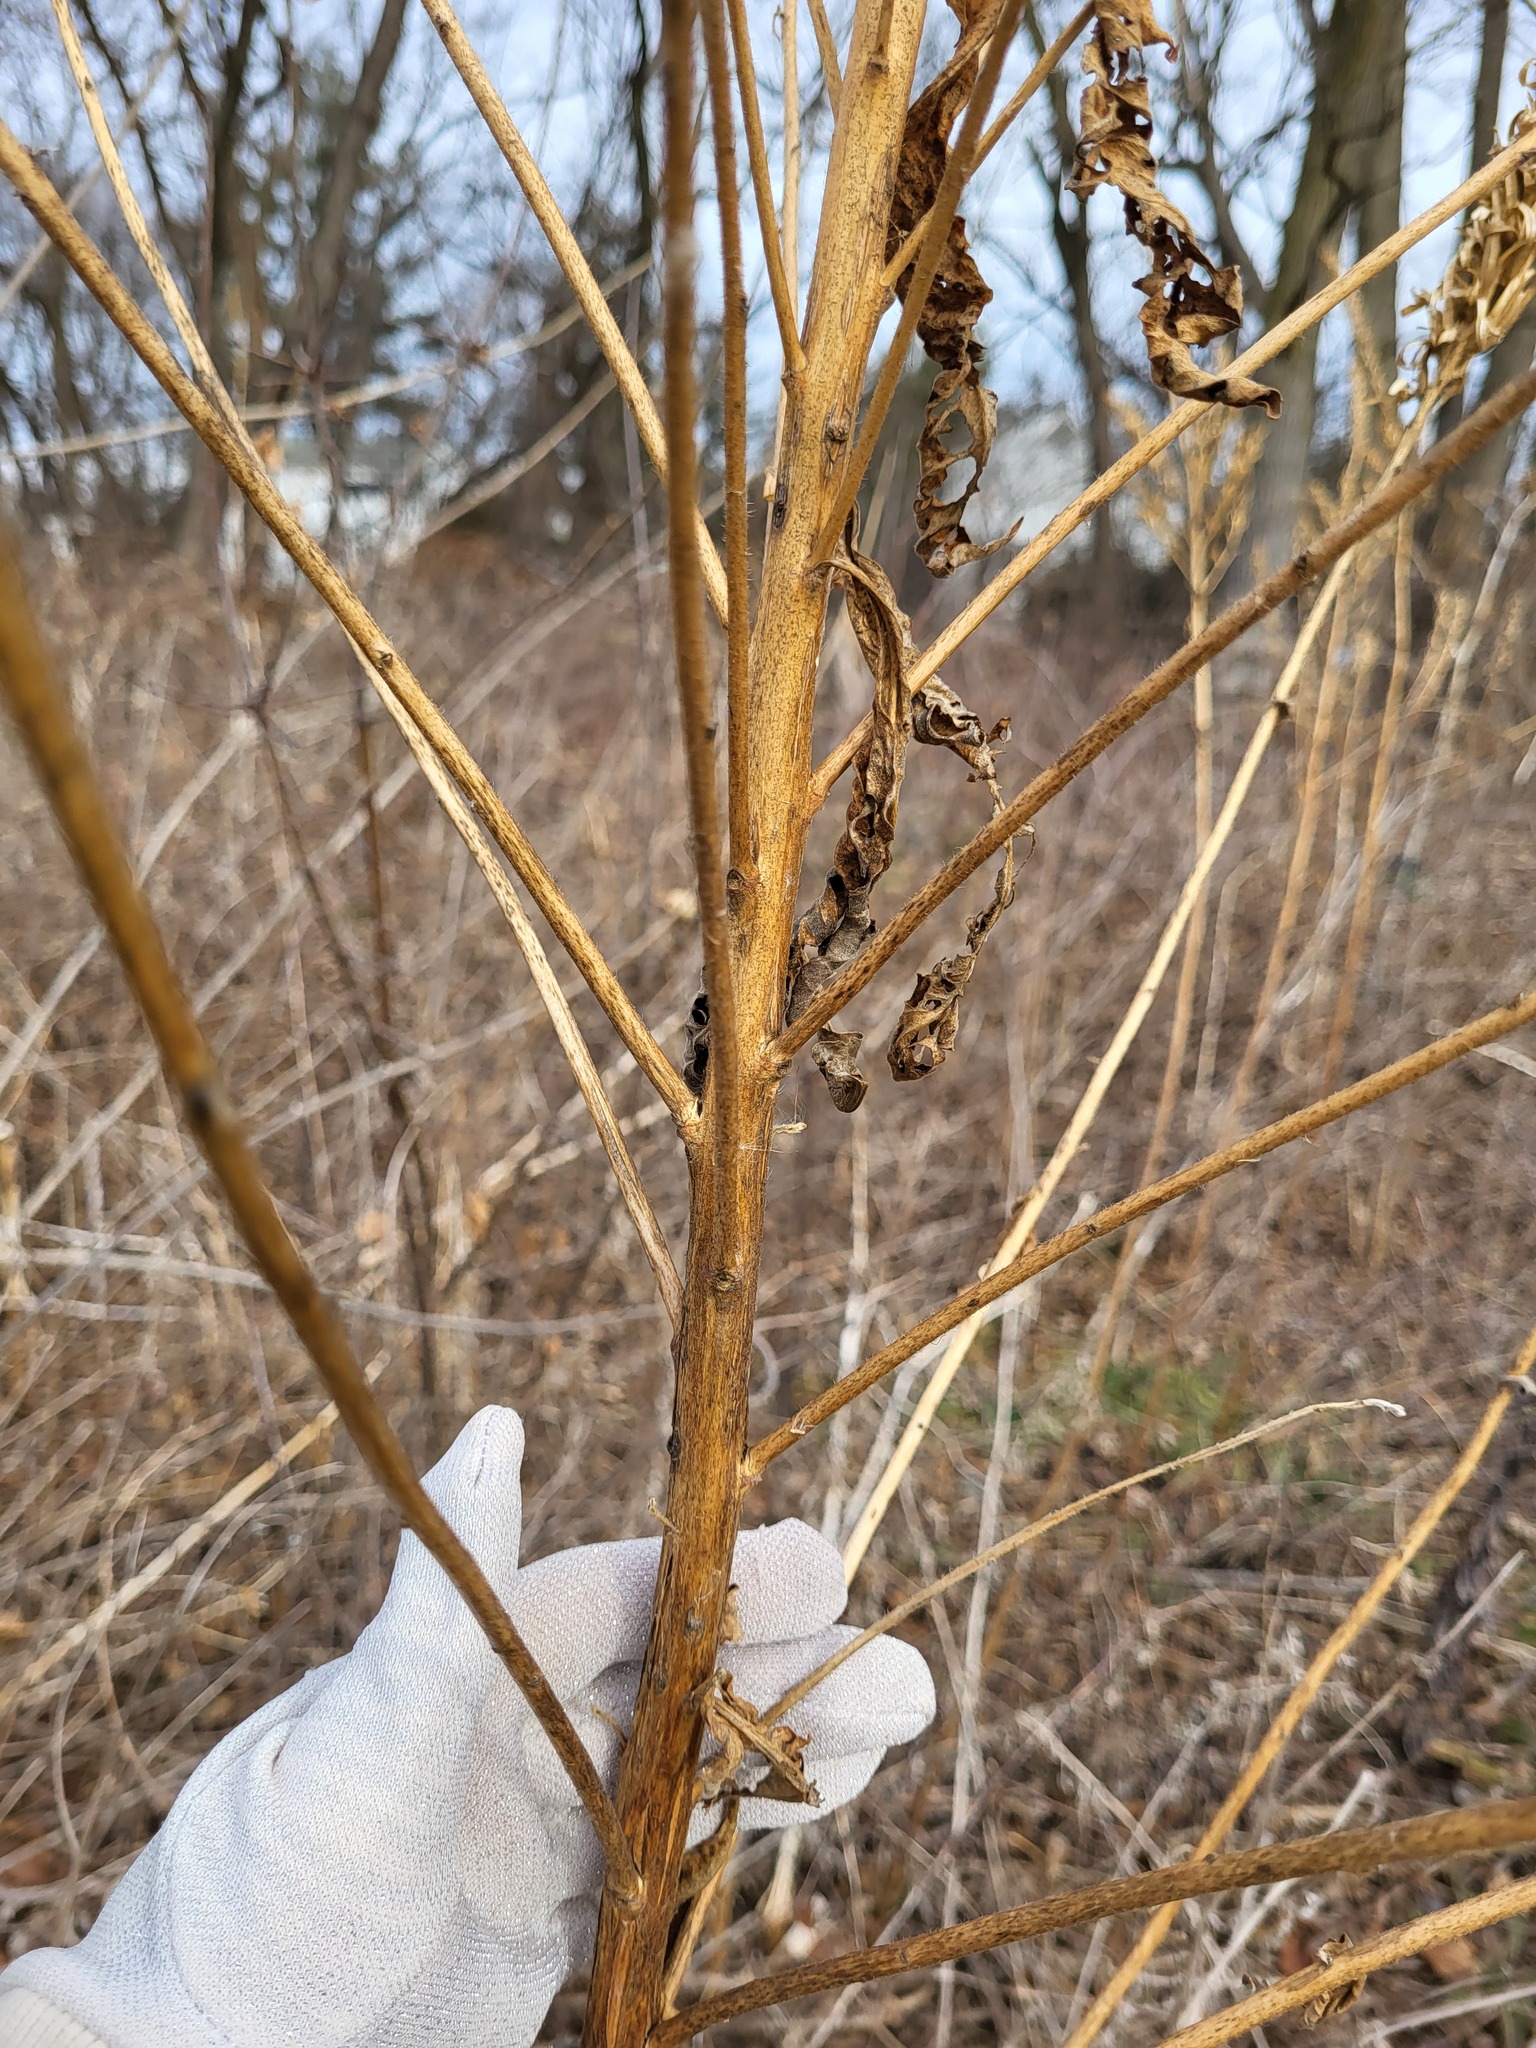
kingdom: Plantae
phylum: Tracheophyta
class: Magnoliopsida
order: Myrtales
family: Onagraceae
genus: Oenothera
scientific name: Oenothera
